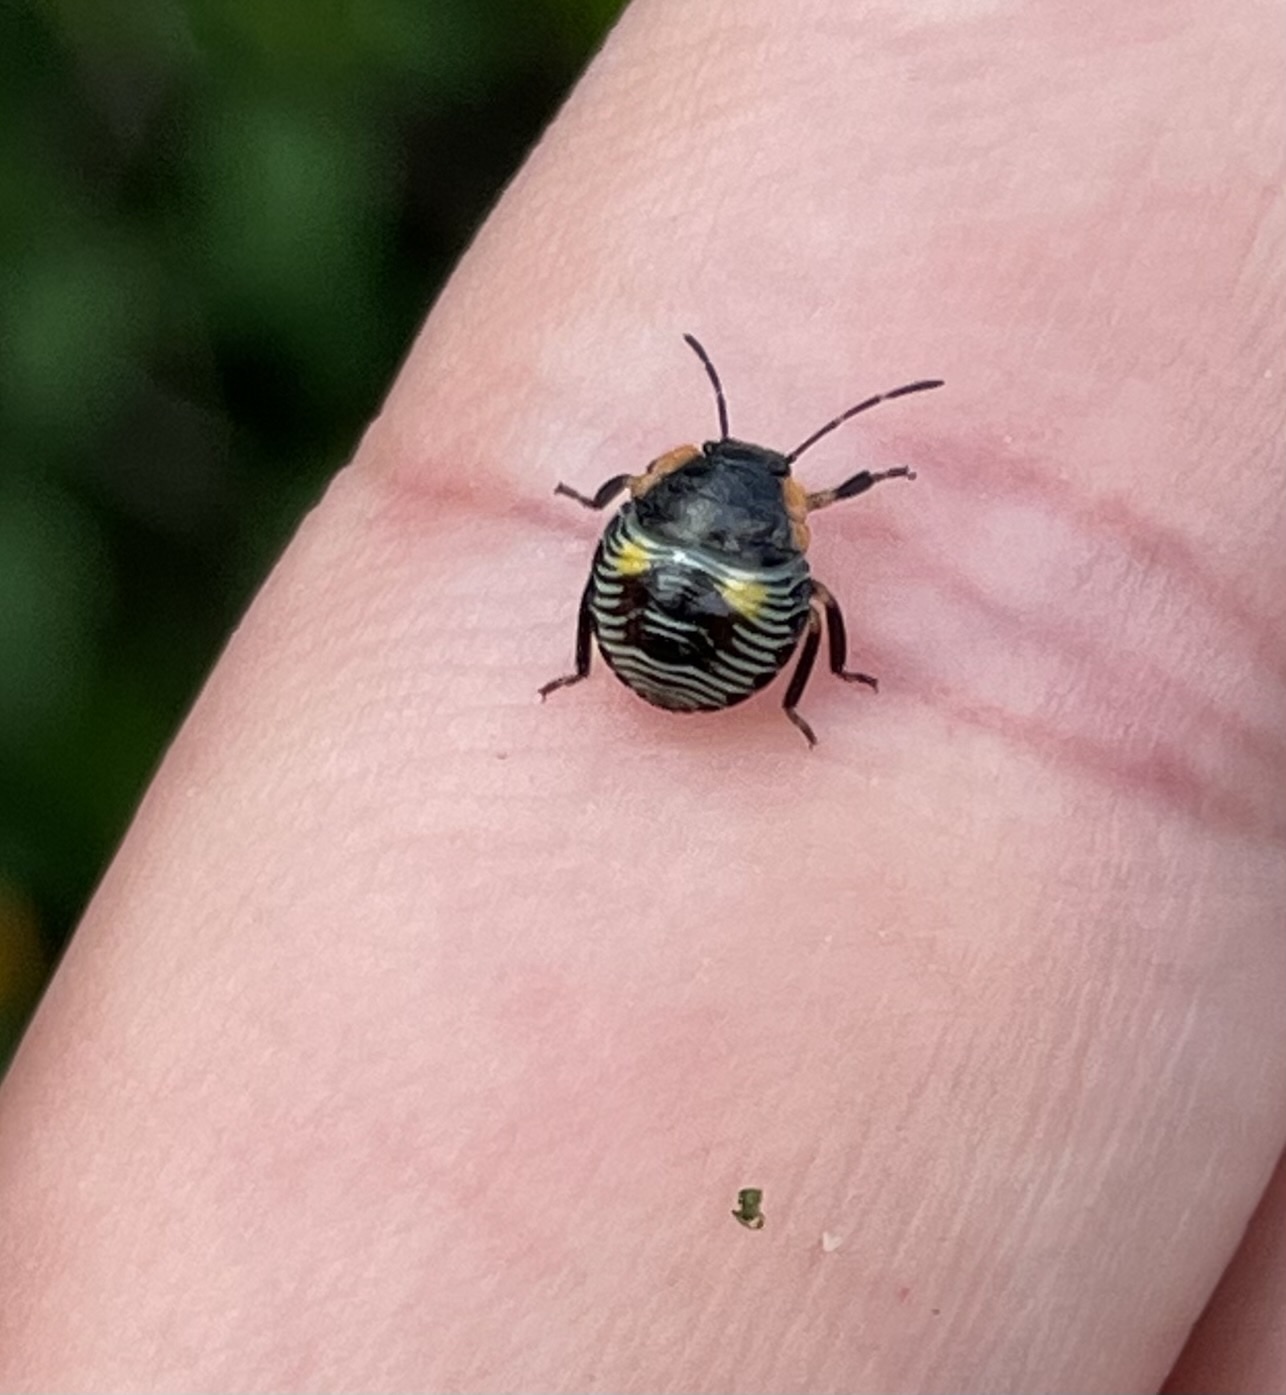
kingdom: Animalia
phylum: Arthropoda
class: Insecta
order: Hemiptera
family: Pentatomidae
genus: Chinavia
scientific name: Chinavia hilaris
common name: Green stink bug
